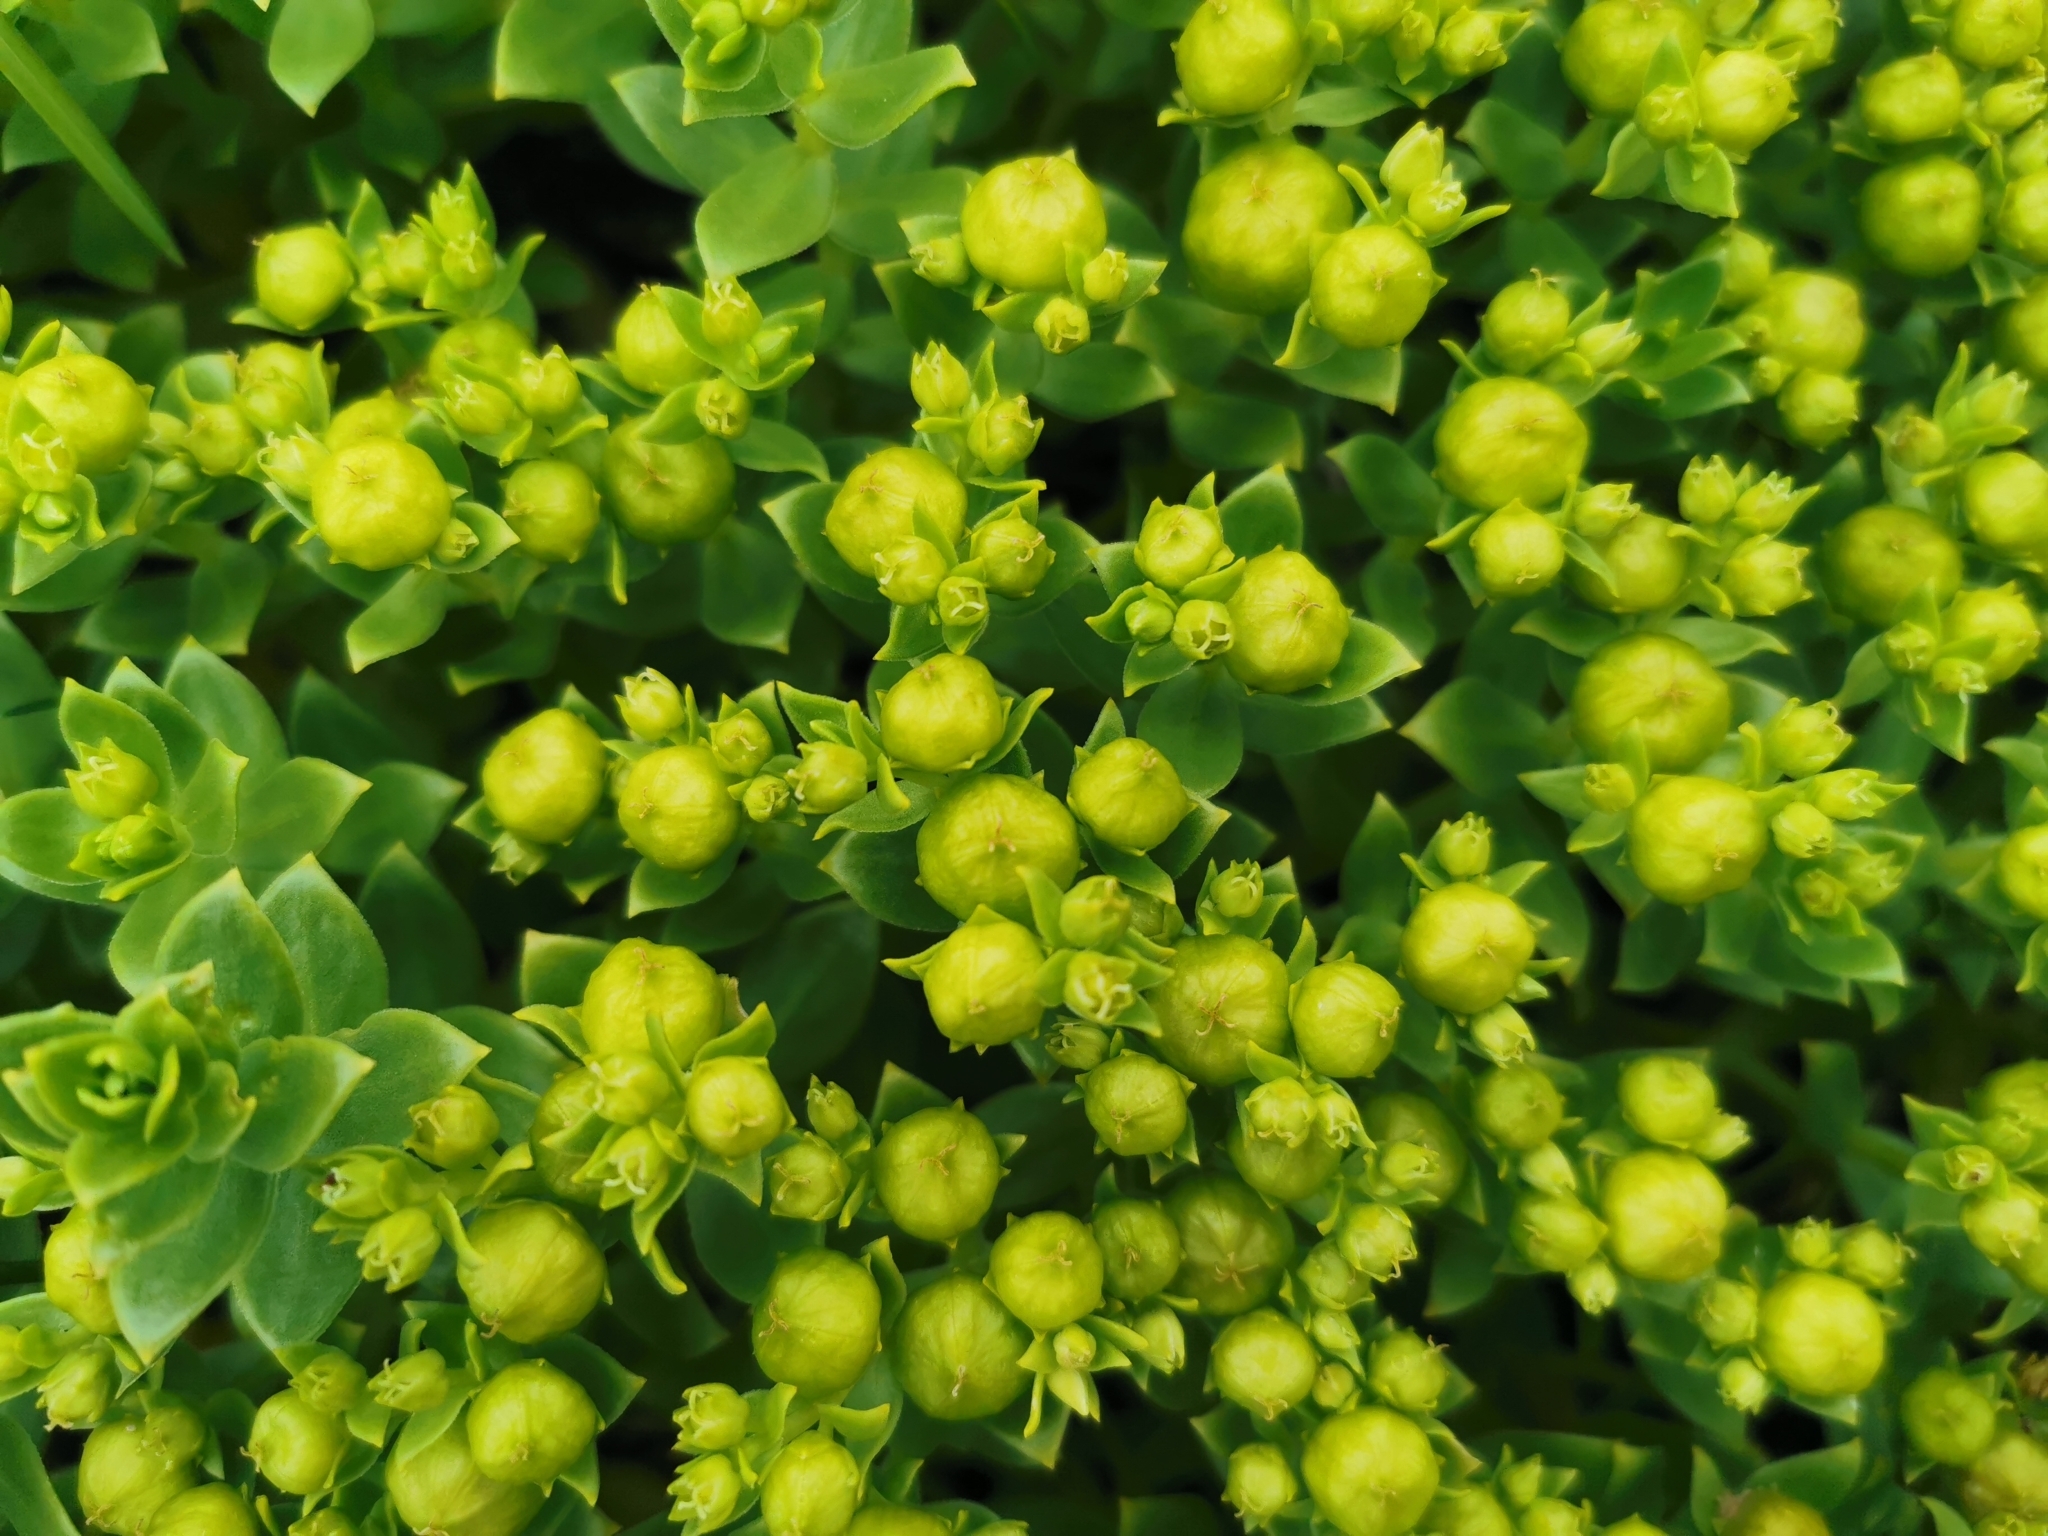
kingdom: Plantae
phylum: Tracheophyta
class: Magnoliopsida
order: Caryophyllales
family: Caryophyllaceae
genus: Honckenya
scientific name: Honckenya peploides
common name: Sea sandwort
